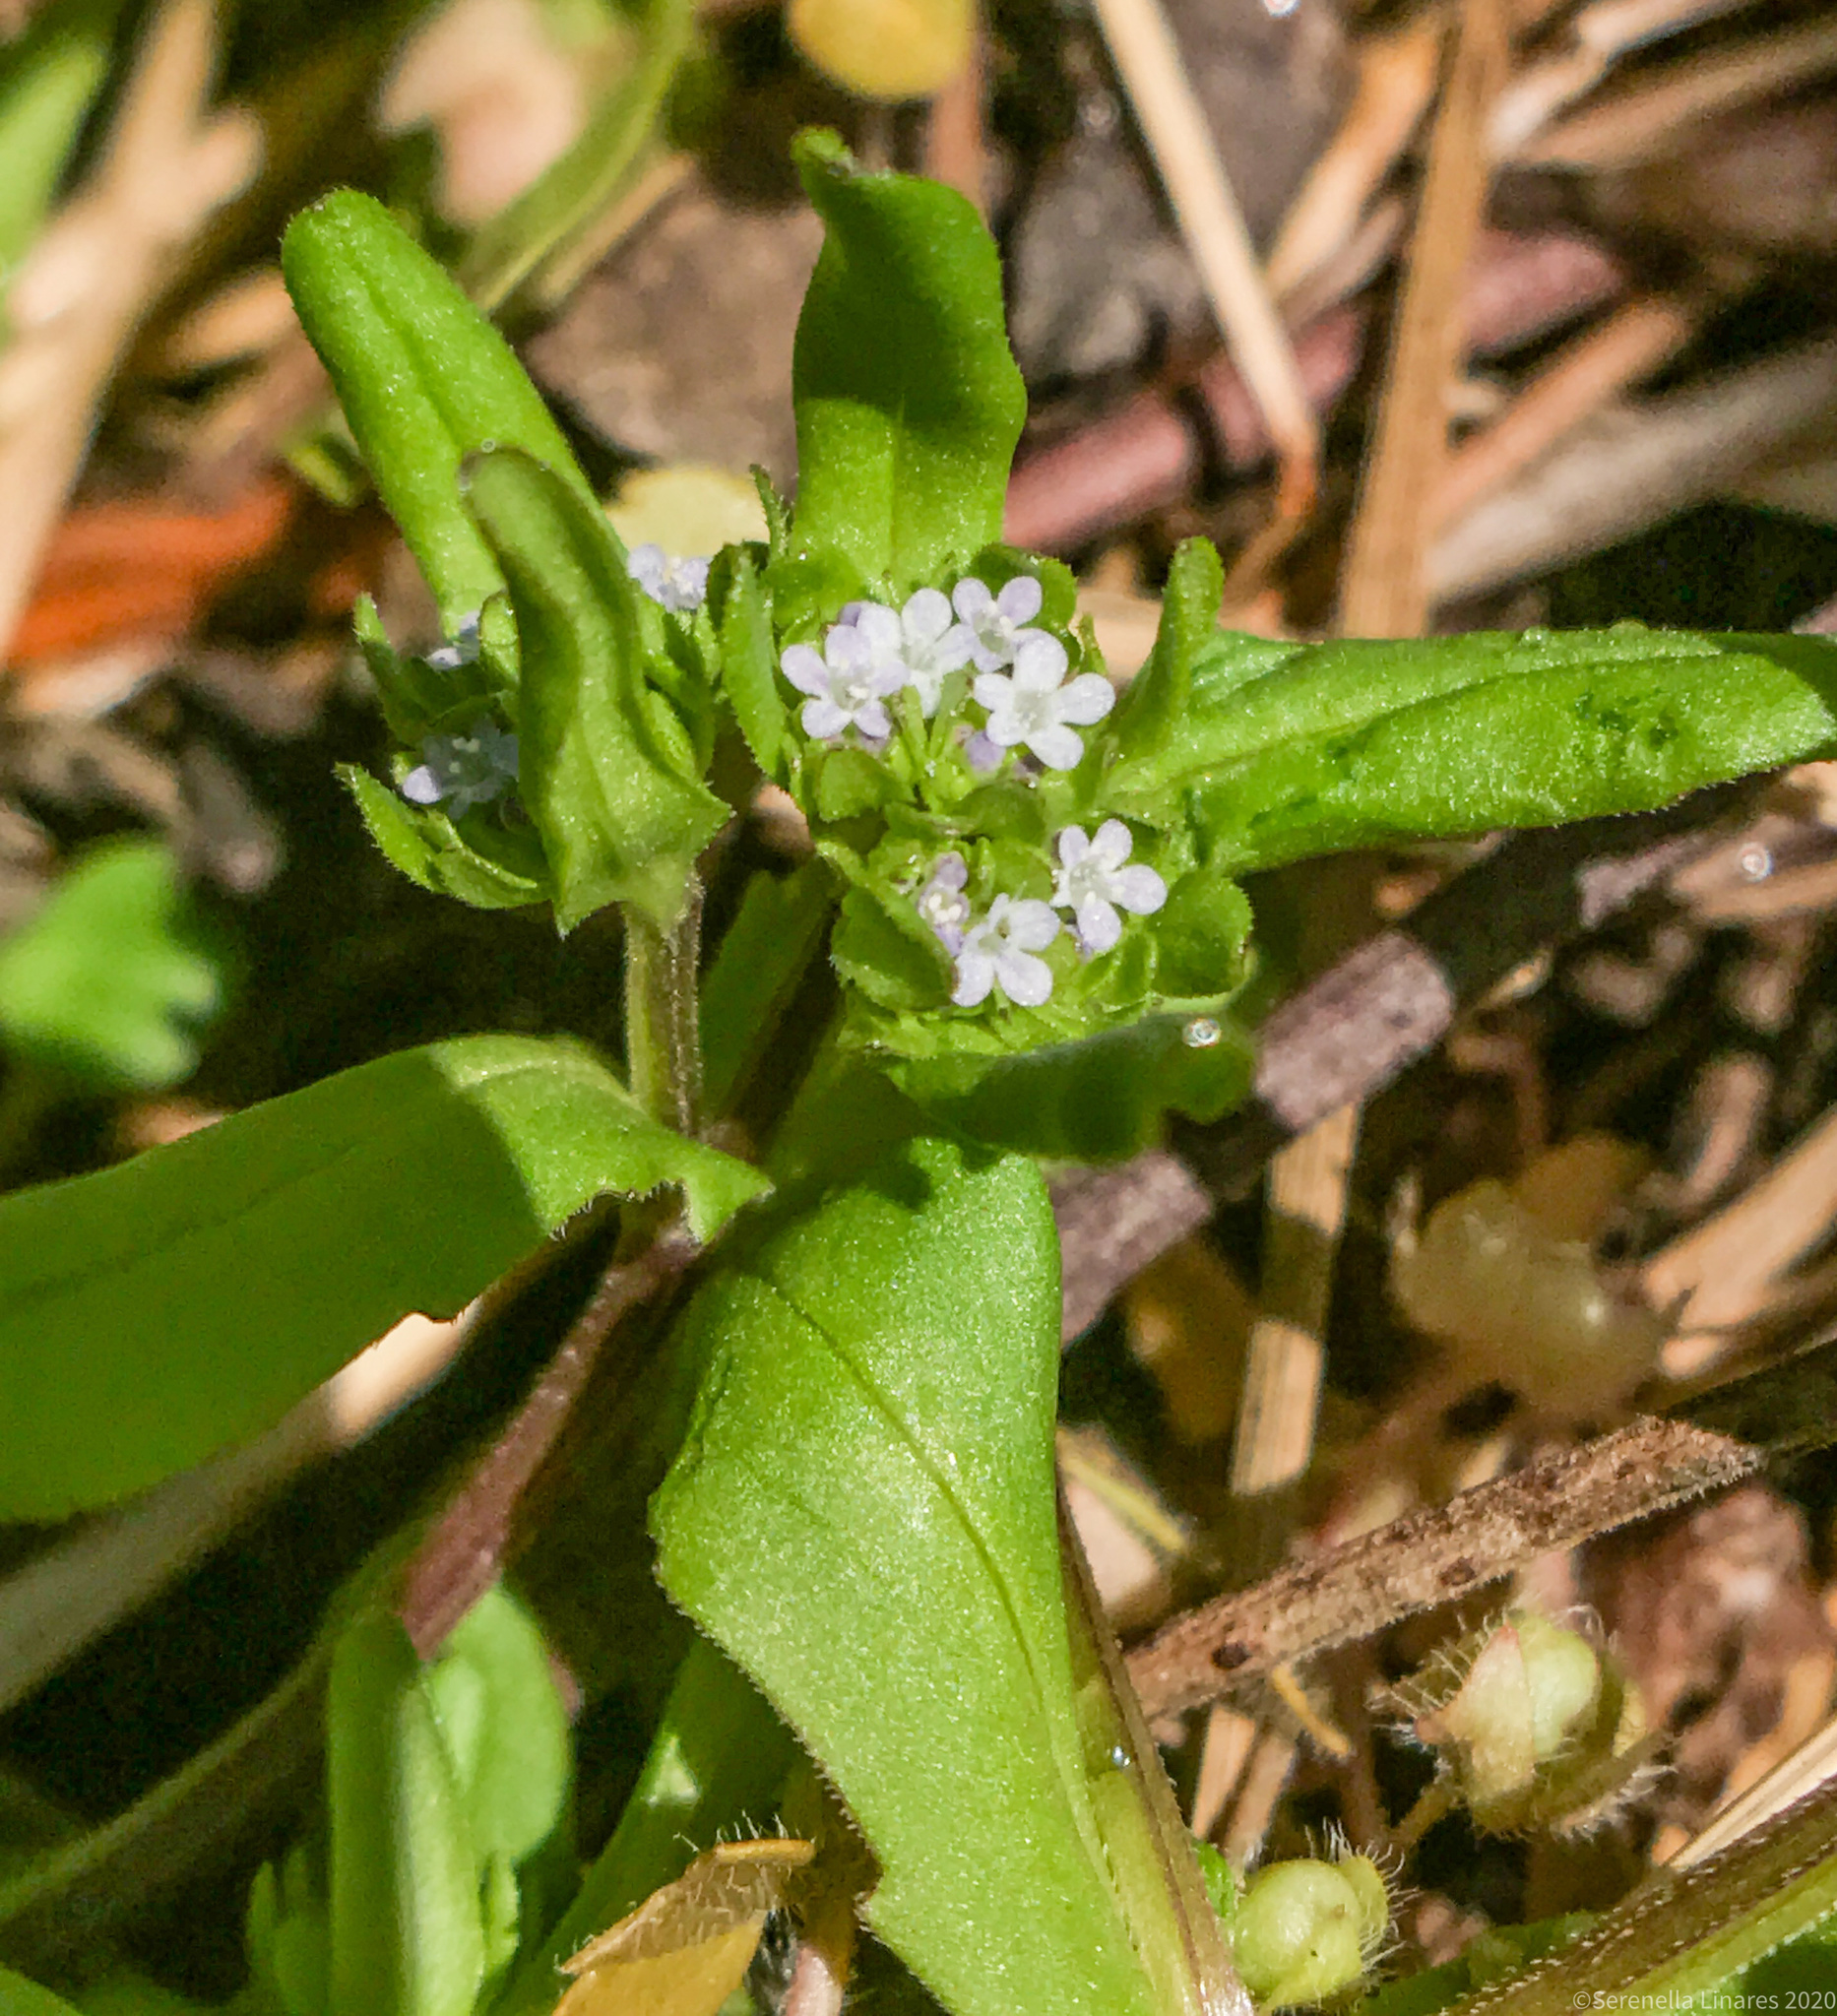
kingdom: Plantae
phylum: Tracheophyta
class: Magnoliopsida
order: Dipsacales
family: Caprifoliaceae
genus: Valerianella
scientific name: Valerianella locusta
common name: Common cornsalad
